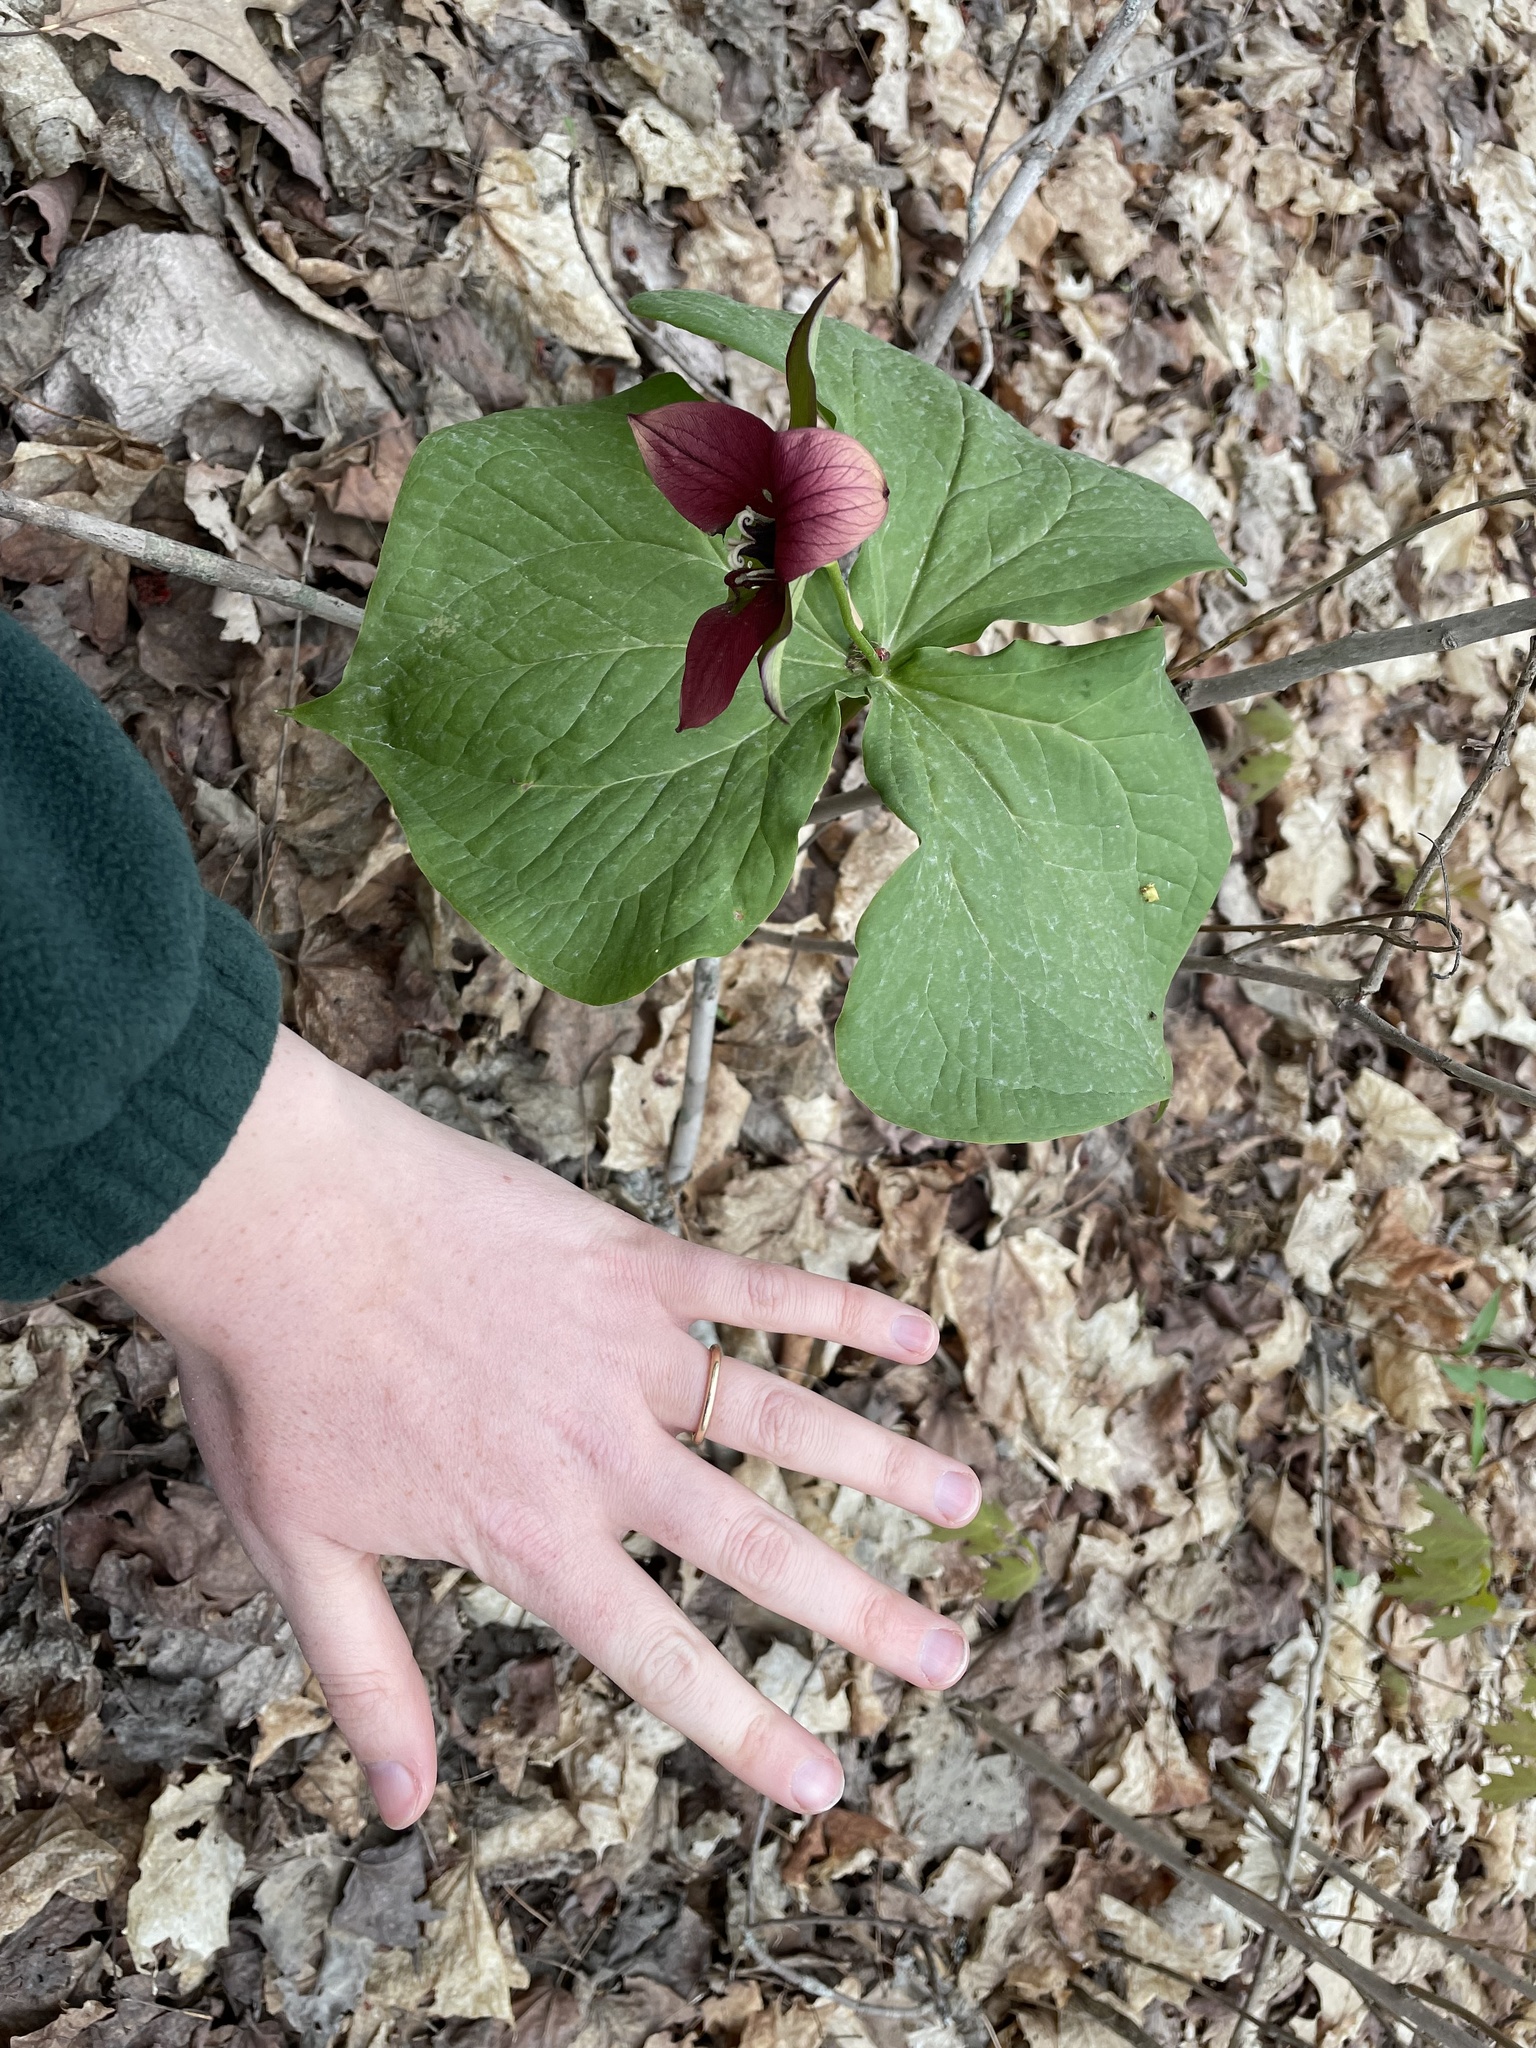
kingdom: Plantae
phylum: Tracheophyta
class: Liliopsida
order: Liliales
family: Melanthiaceae
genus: Trillium
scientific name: Trillium erectum
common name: Purple trillium
